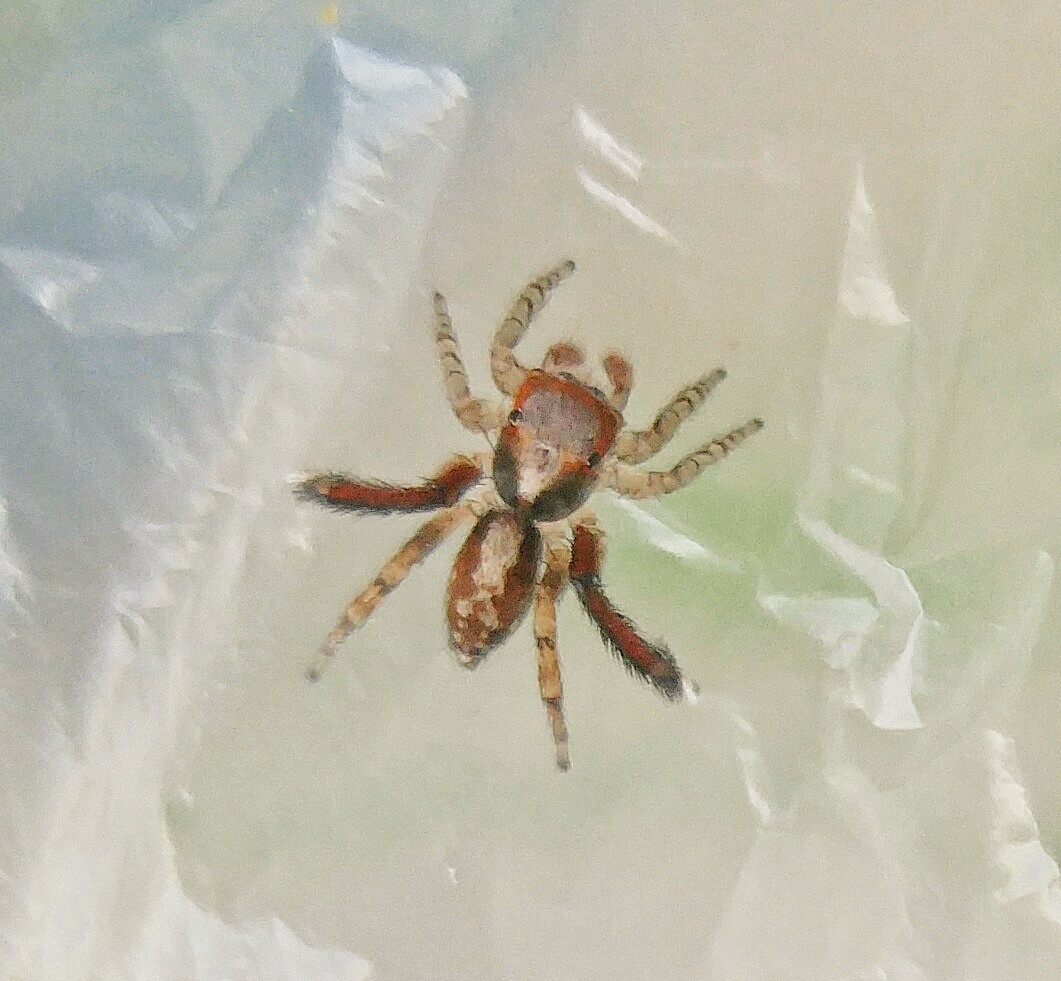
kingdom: Animalia
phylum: Arthropoda
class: Arachnida
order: Araneae
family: Salticidae
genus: Saitis
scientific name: Saitis barbipes
